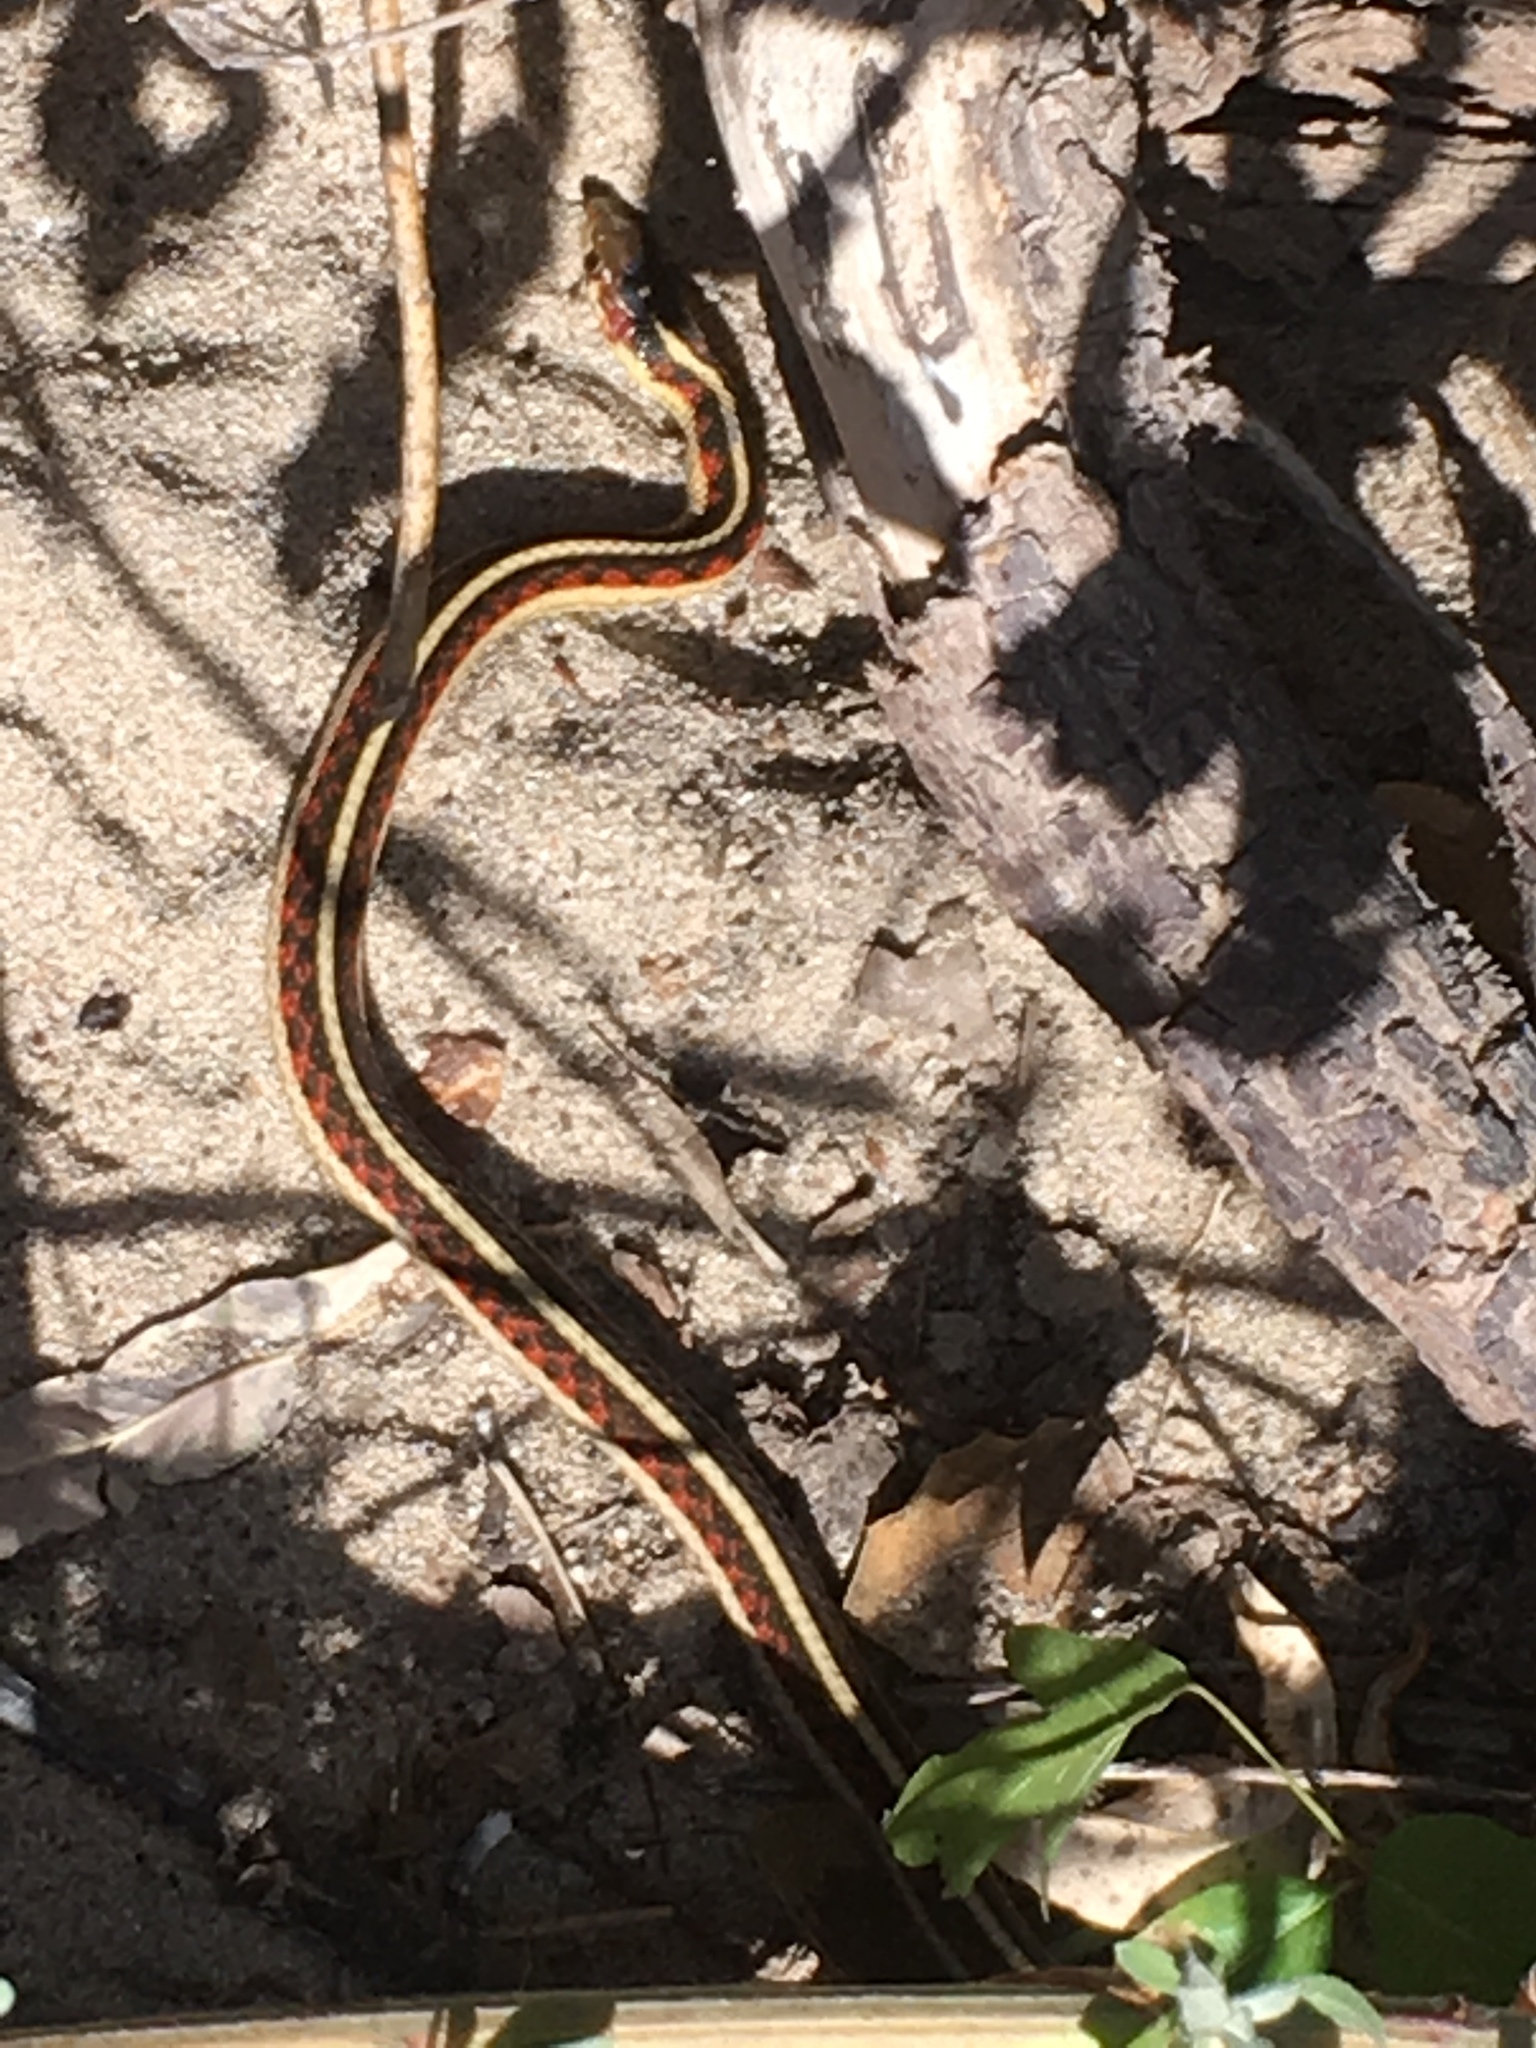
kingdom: Animalia
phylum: Chordata
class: Squamata
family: Colubridae
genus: Thamnophis
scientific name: Thamnophis sirtalis
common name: Common garter snake
